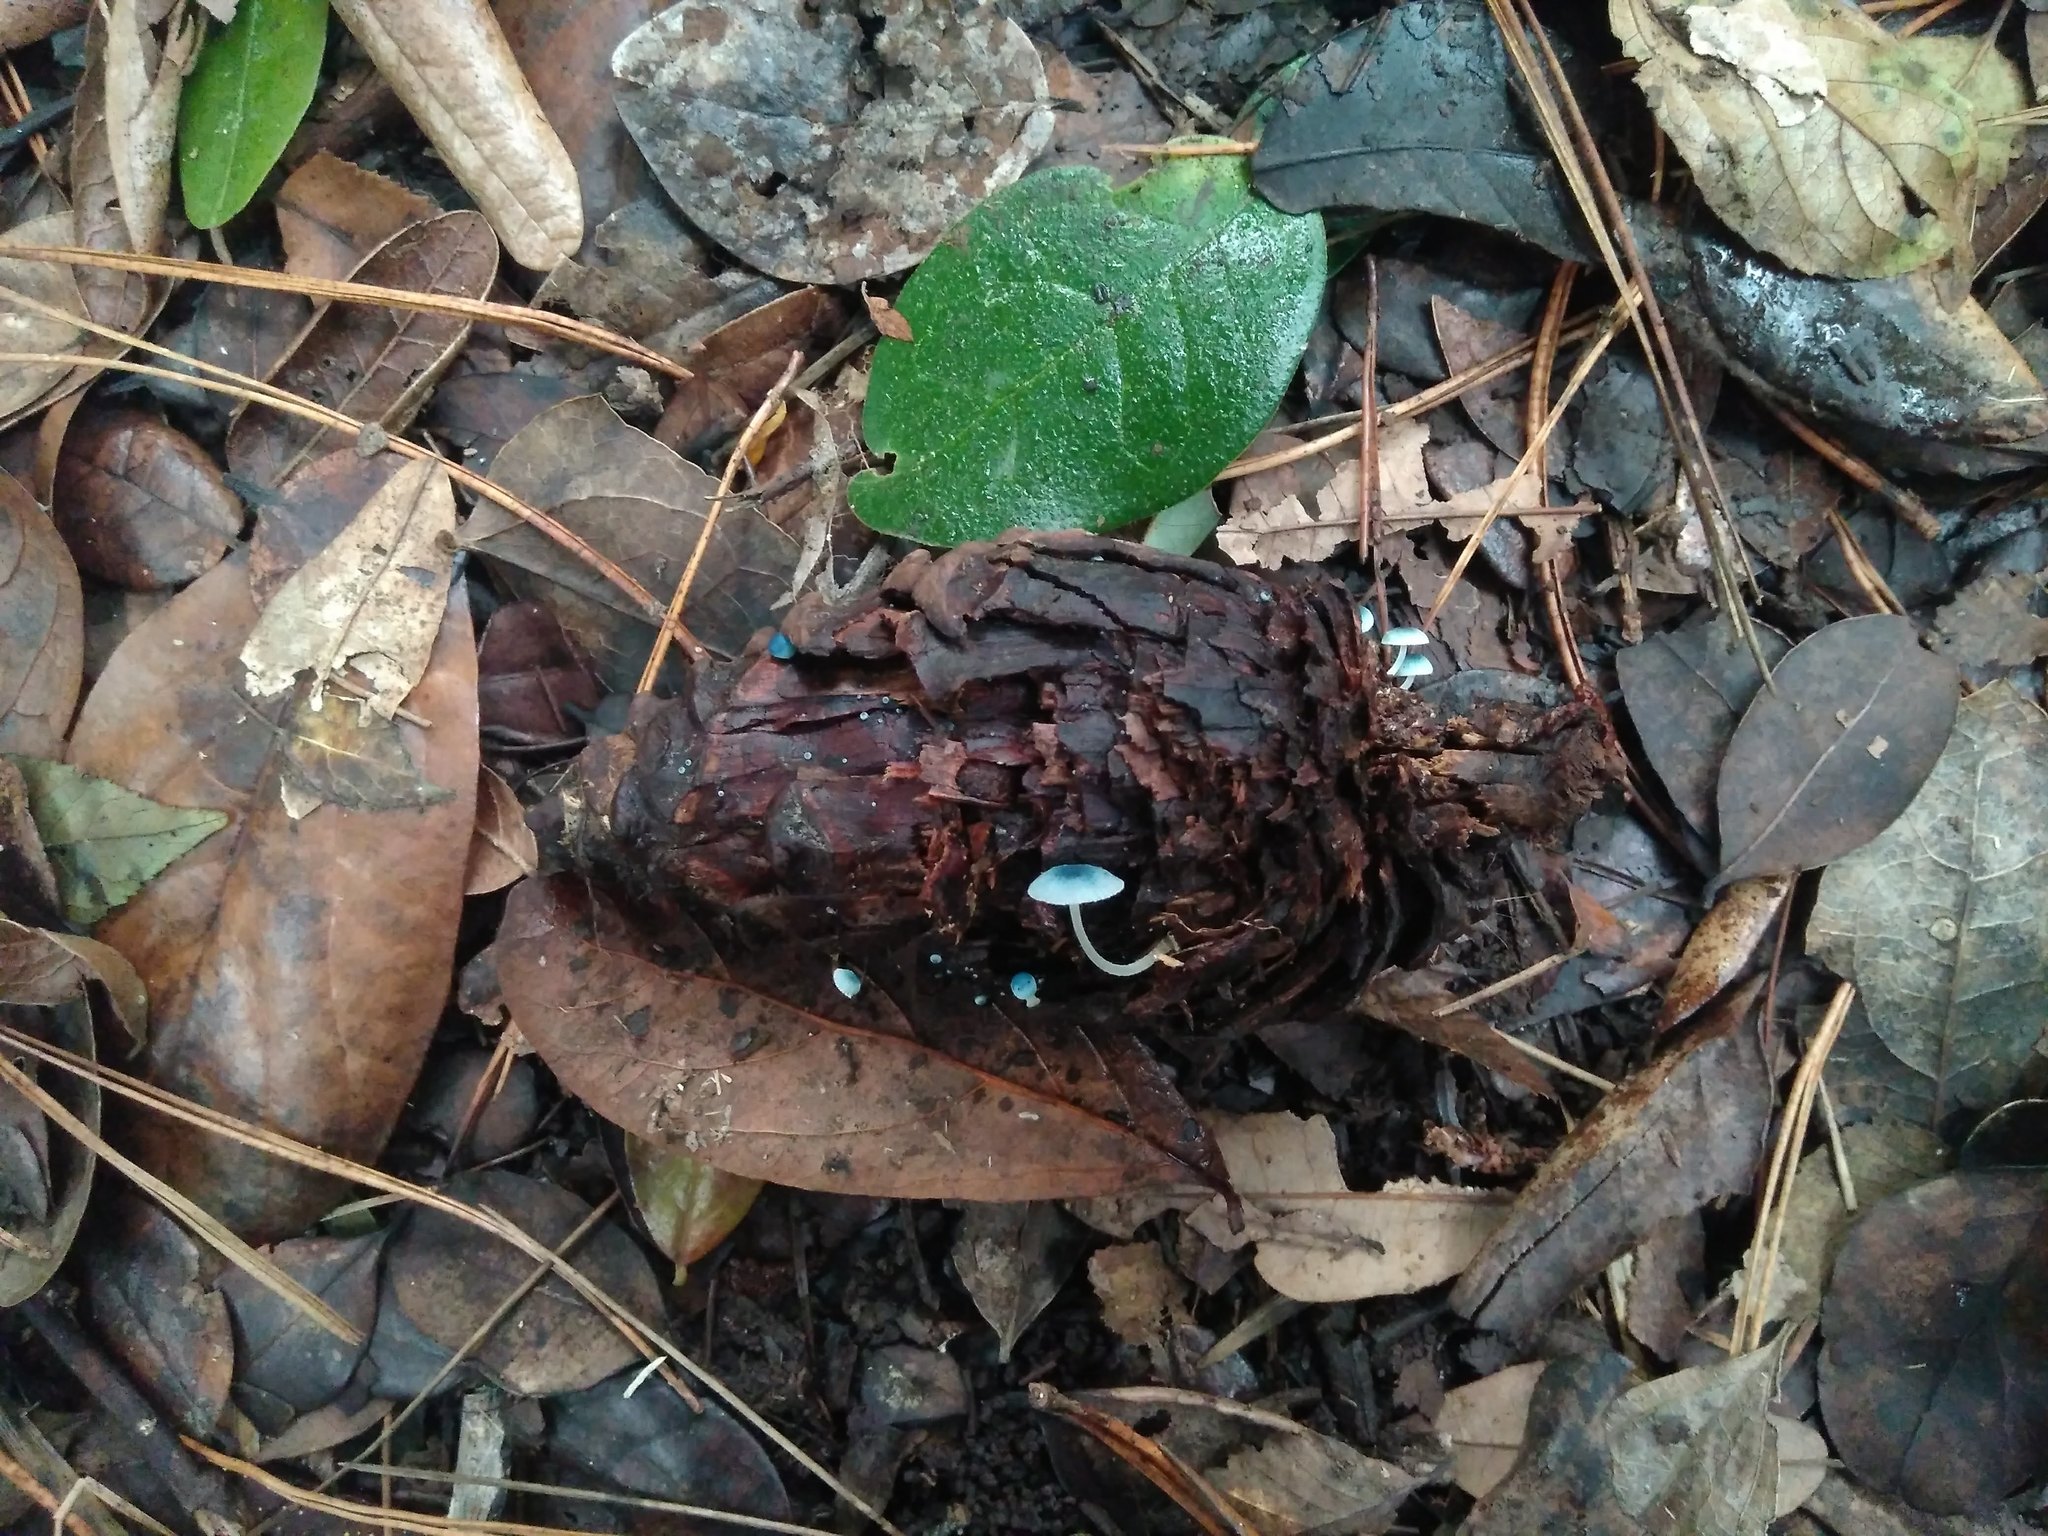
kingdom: Fungi
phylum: Basidiomycota
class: Agaricomycetes
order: Agaricales
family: Mycenaceae
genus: Mycena
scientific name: Mycena cyanocephala
